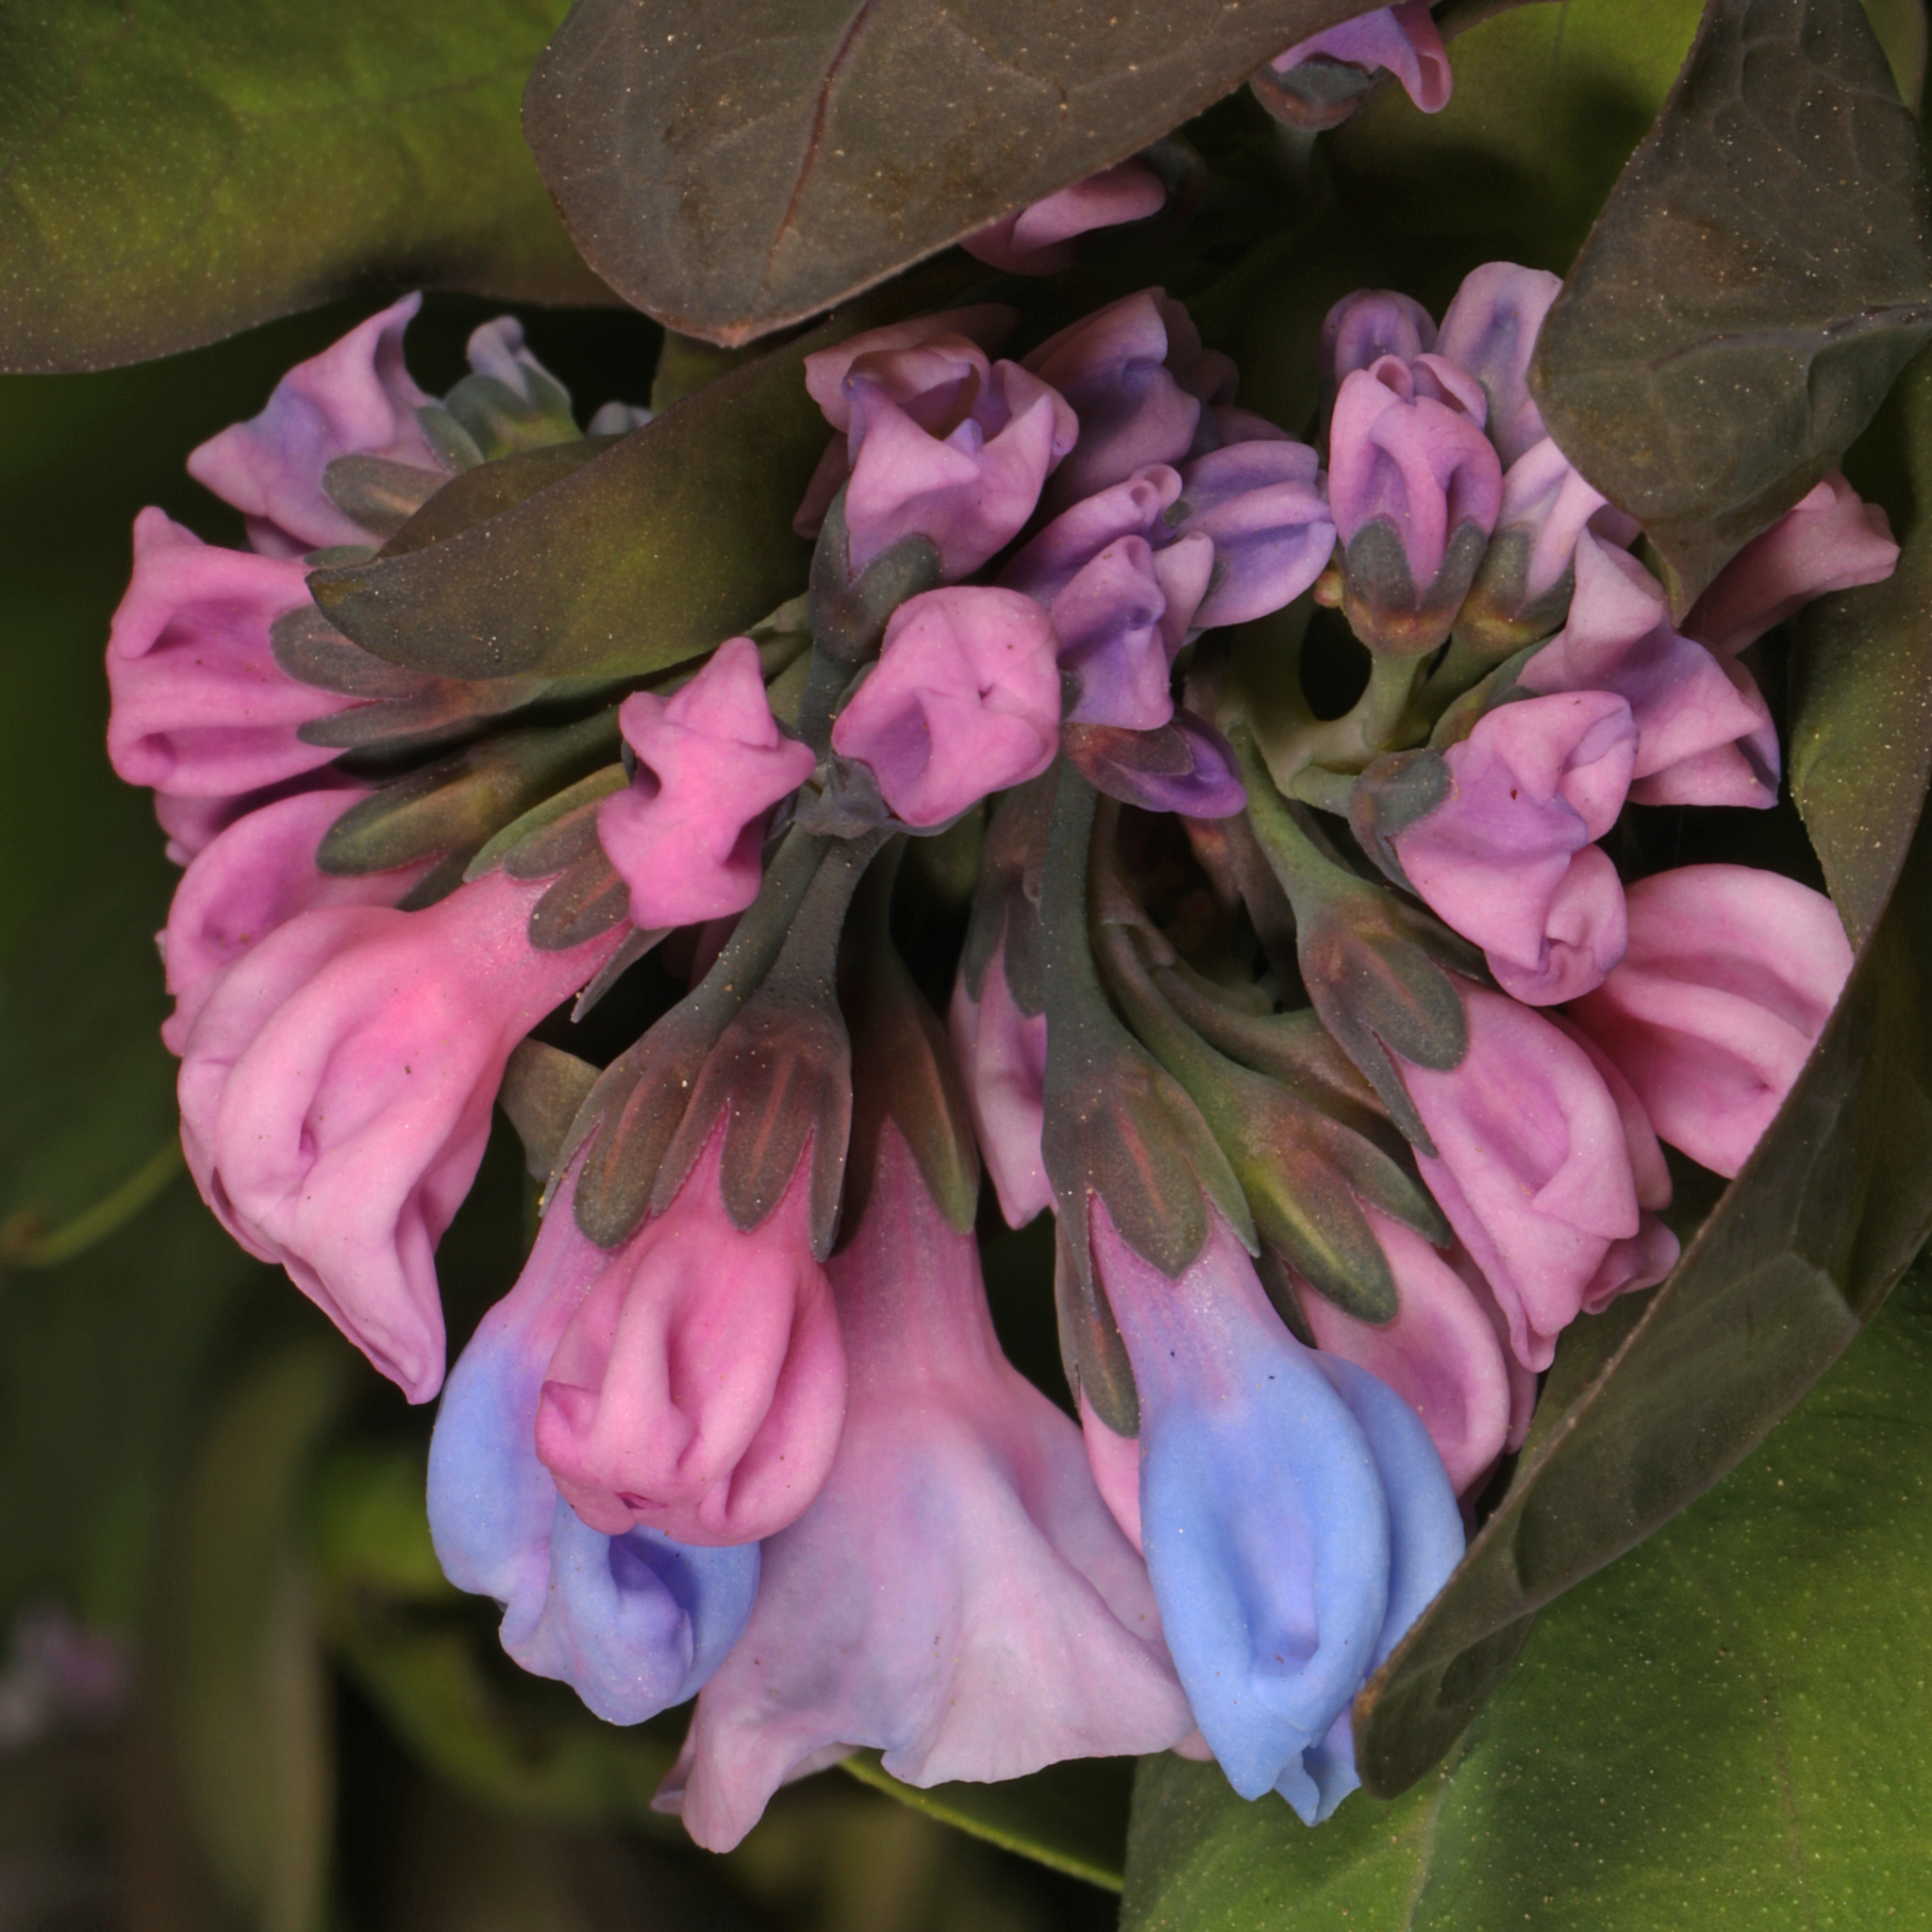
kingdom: Plantae
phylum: Tracheophyta
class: Magnoliopsida
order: Boraginales
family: Boraginaceae
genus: Mertensia
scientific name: Mertensia virginica
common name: Virginia bluebells
